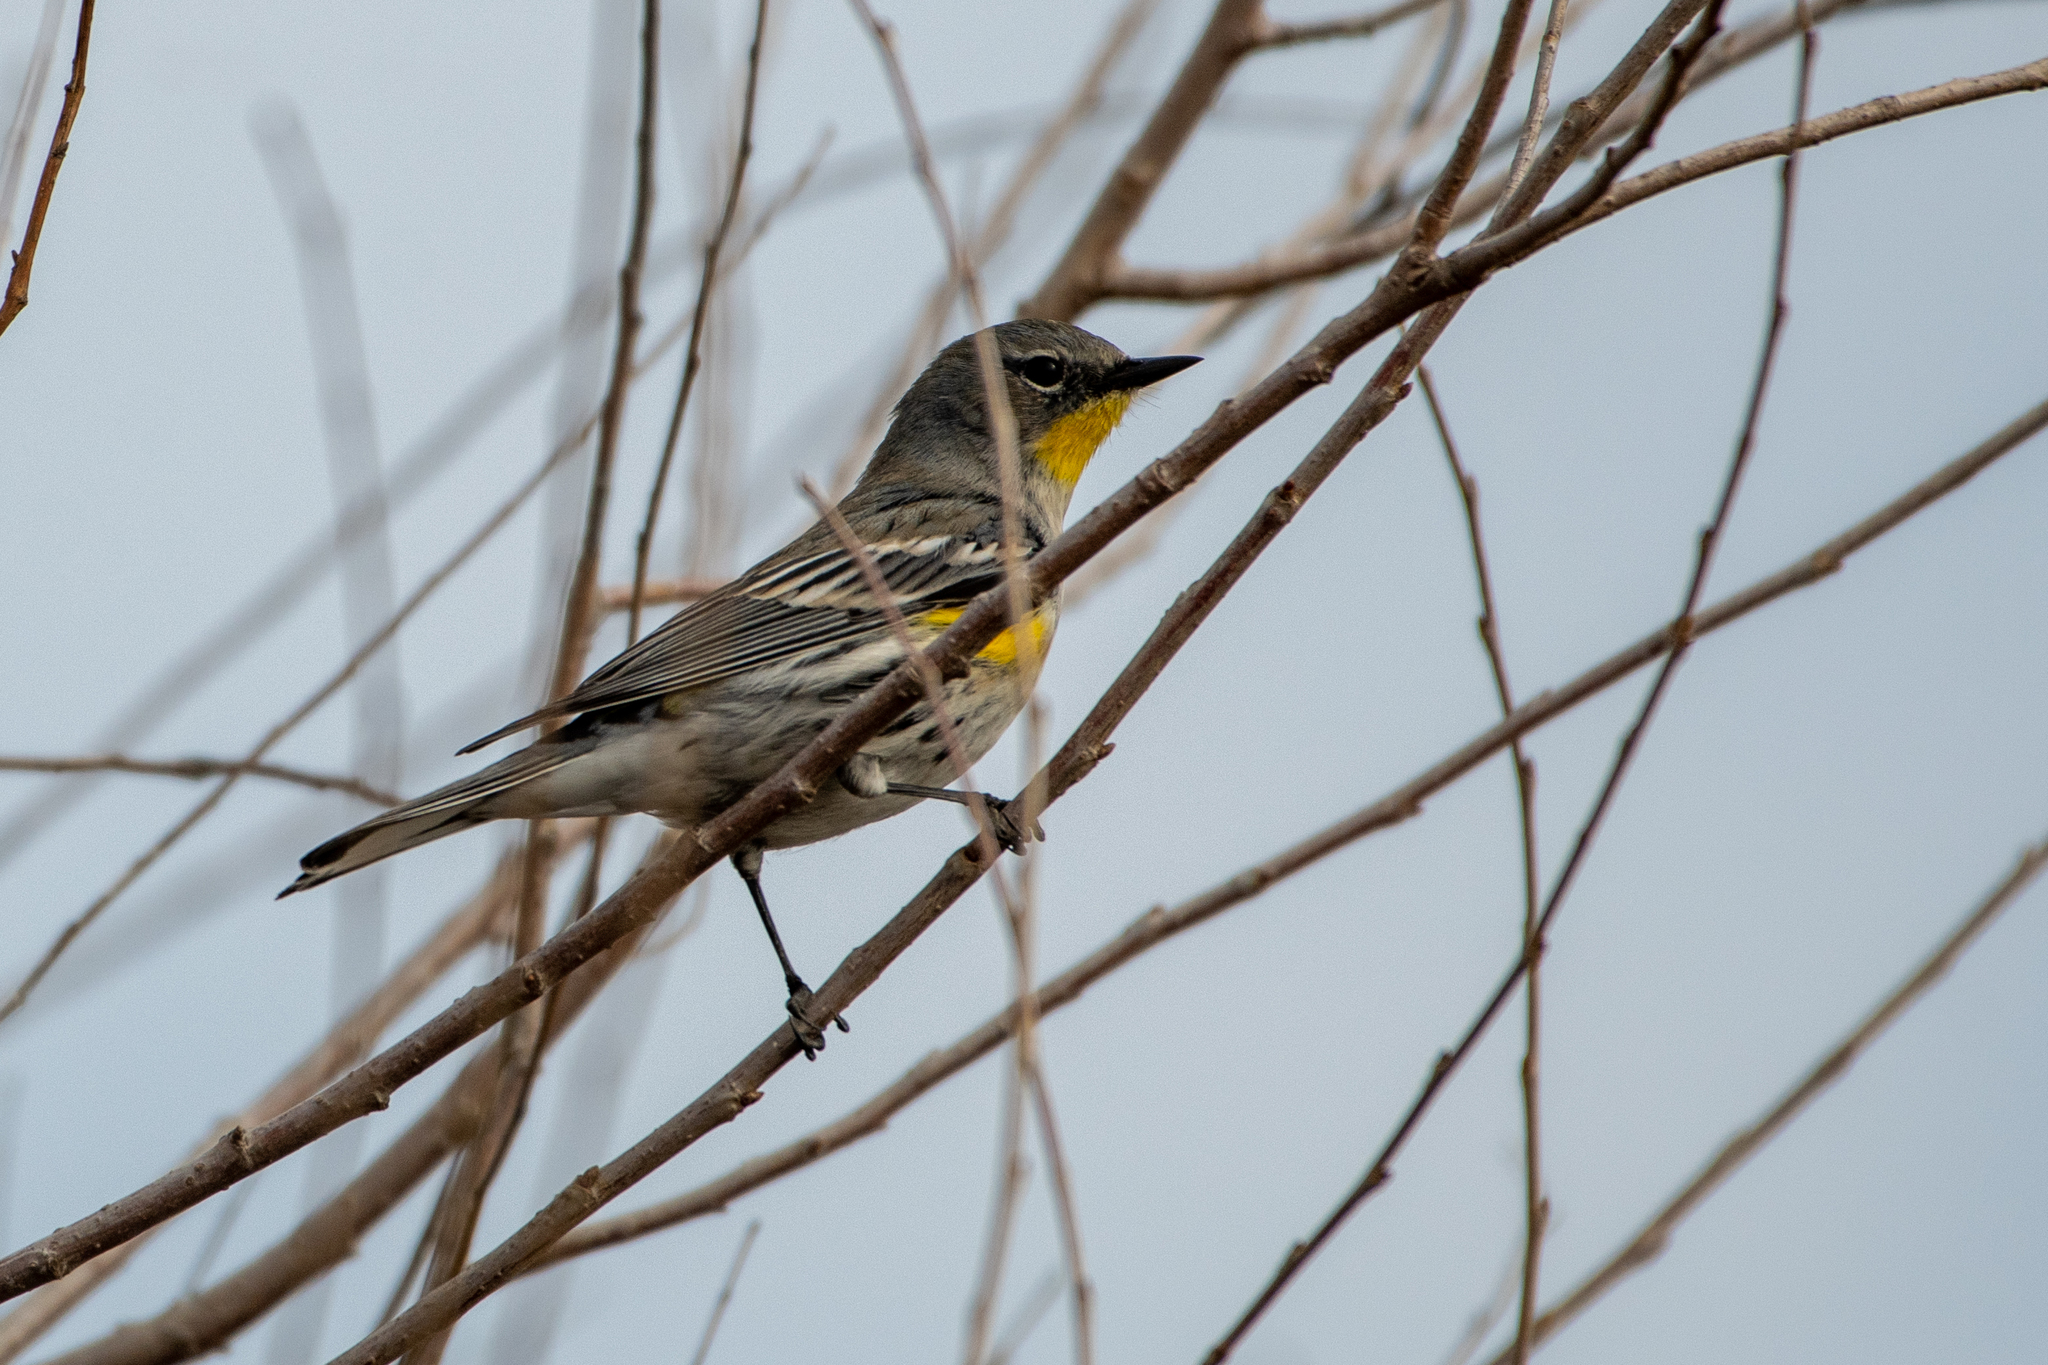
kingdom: Animalia
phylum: Chordata
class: Aves
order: Passeriformes
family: Parulidae
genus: Setophaga
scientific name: Setophaga coronata
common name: Myrtle warbler
